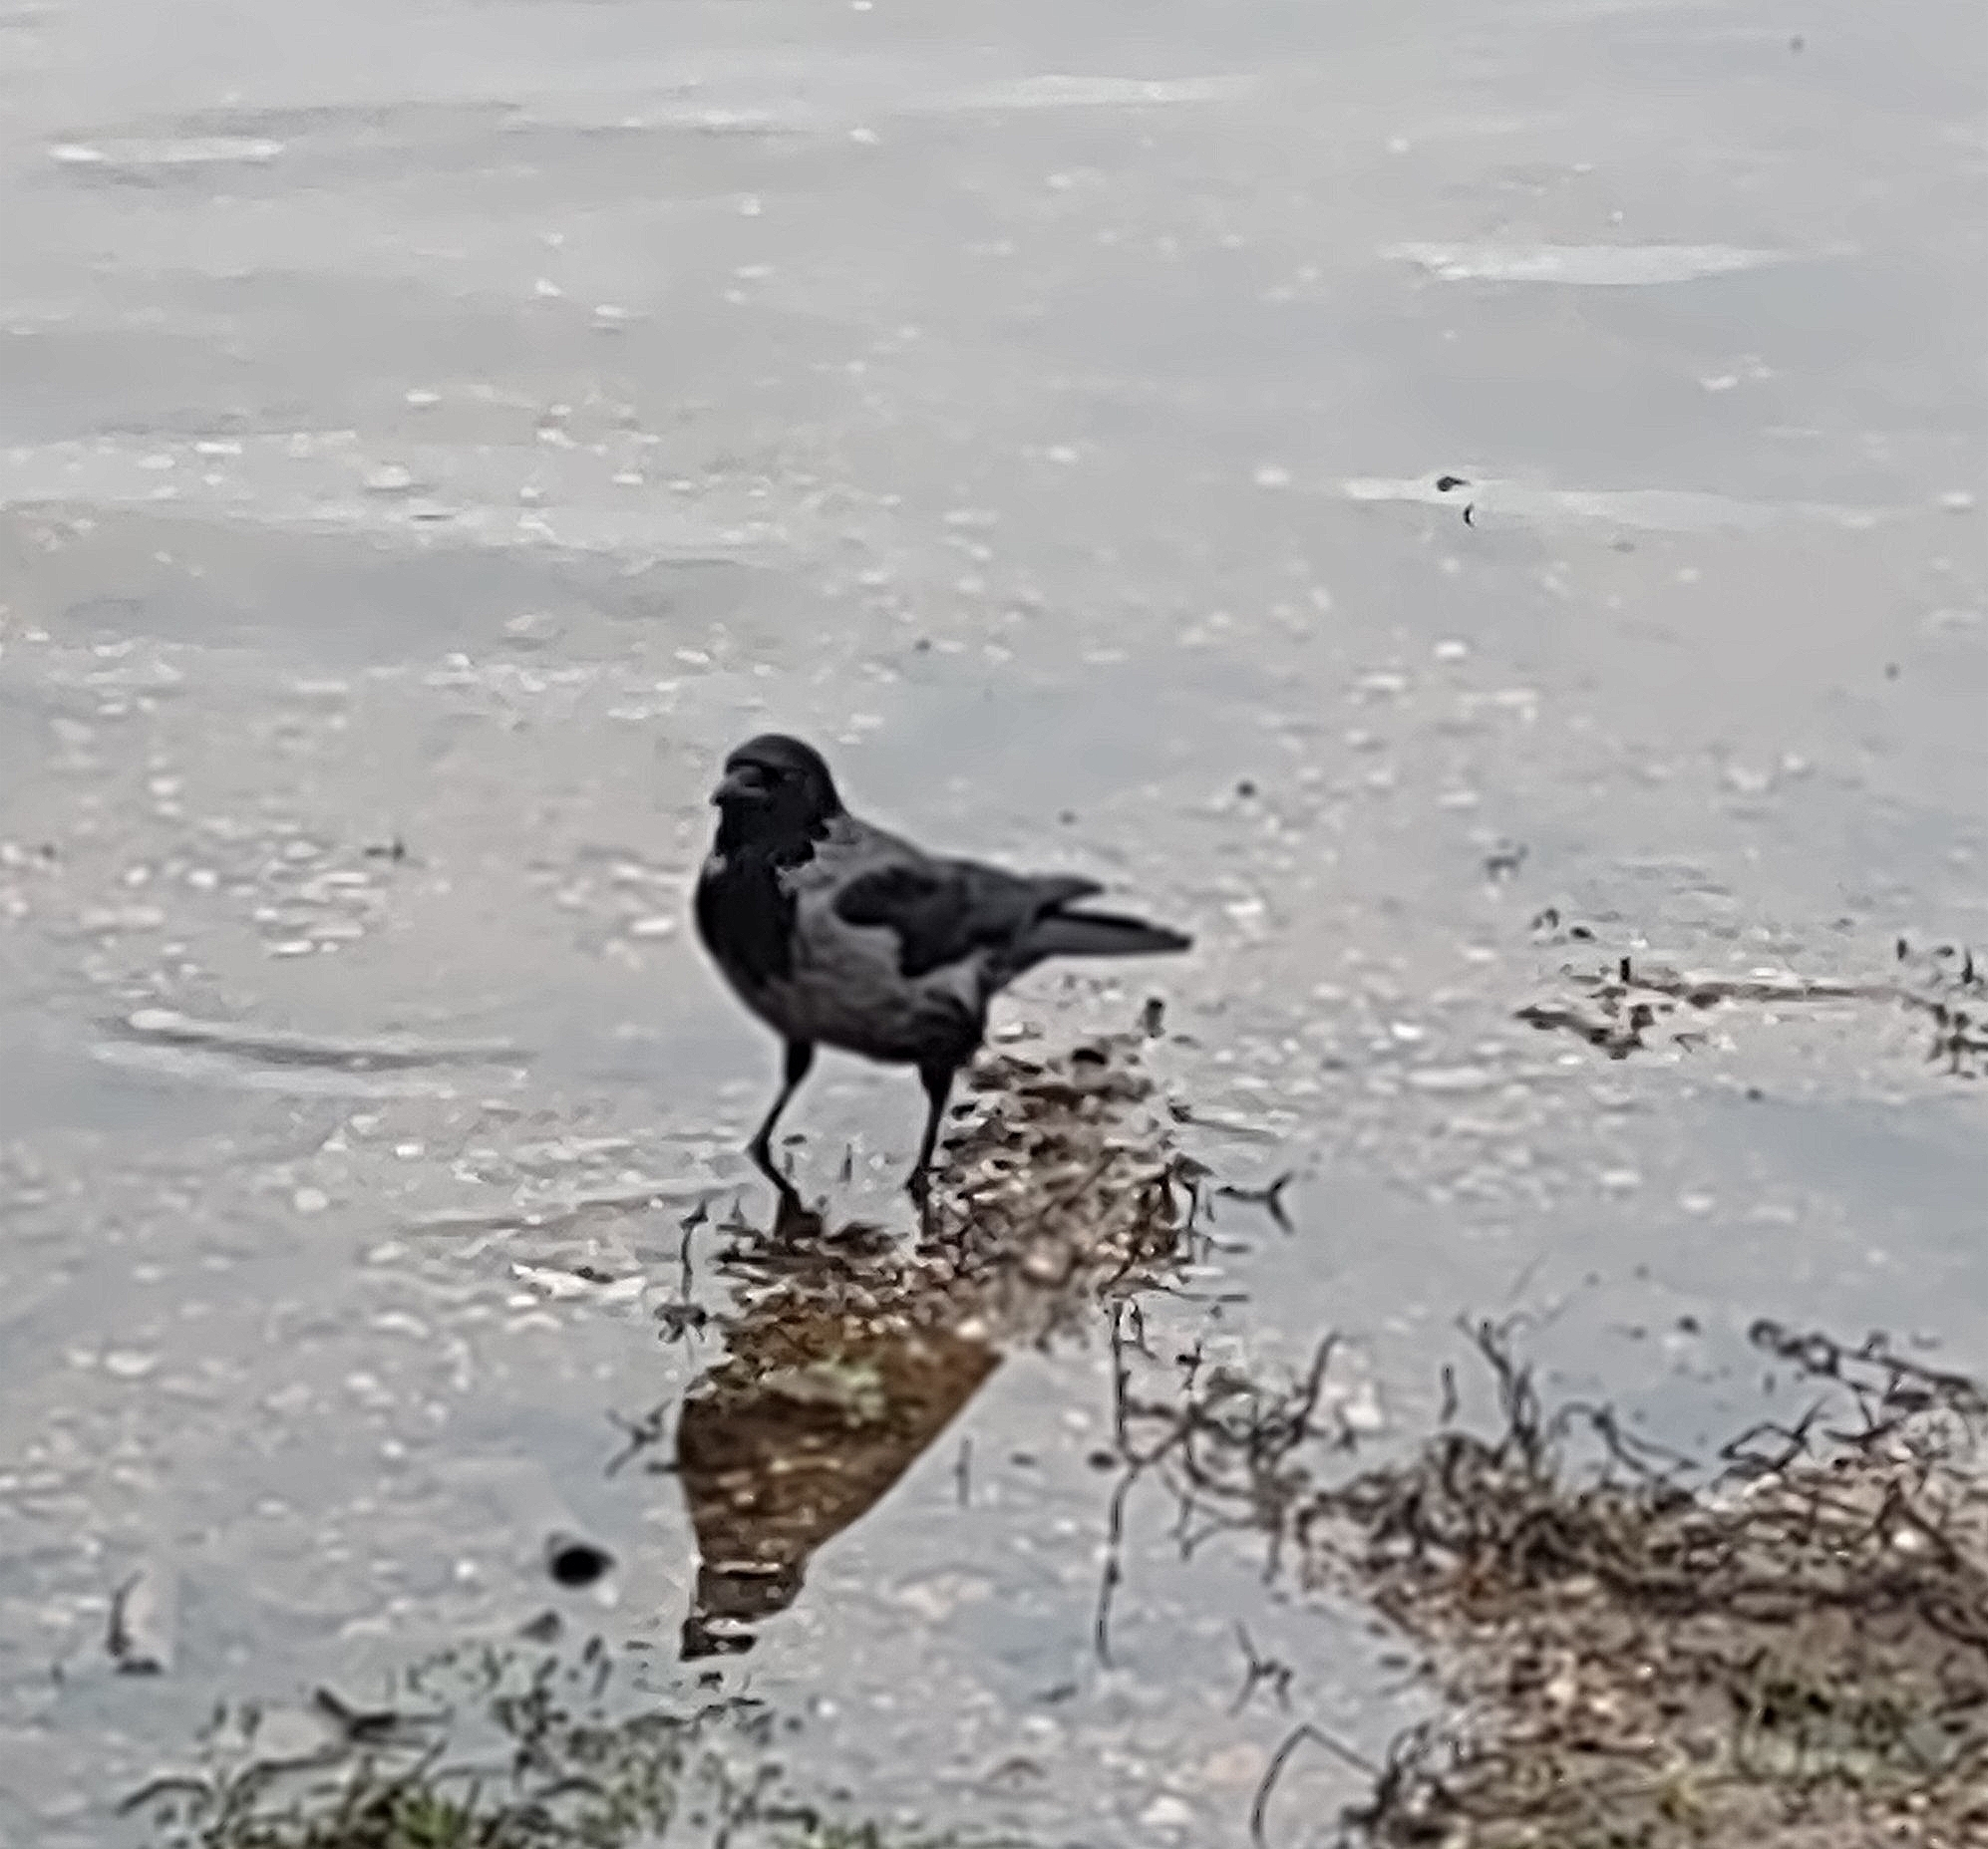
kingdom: Animalia
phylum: Chordata
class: Aves
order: Passeriformes
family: Corvidae
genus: Corvus
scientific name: Corvus
